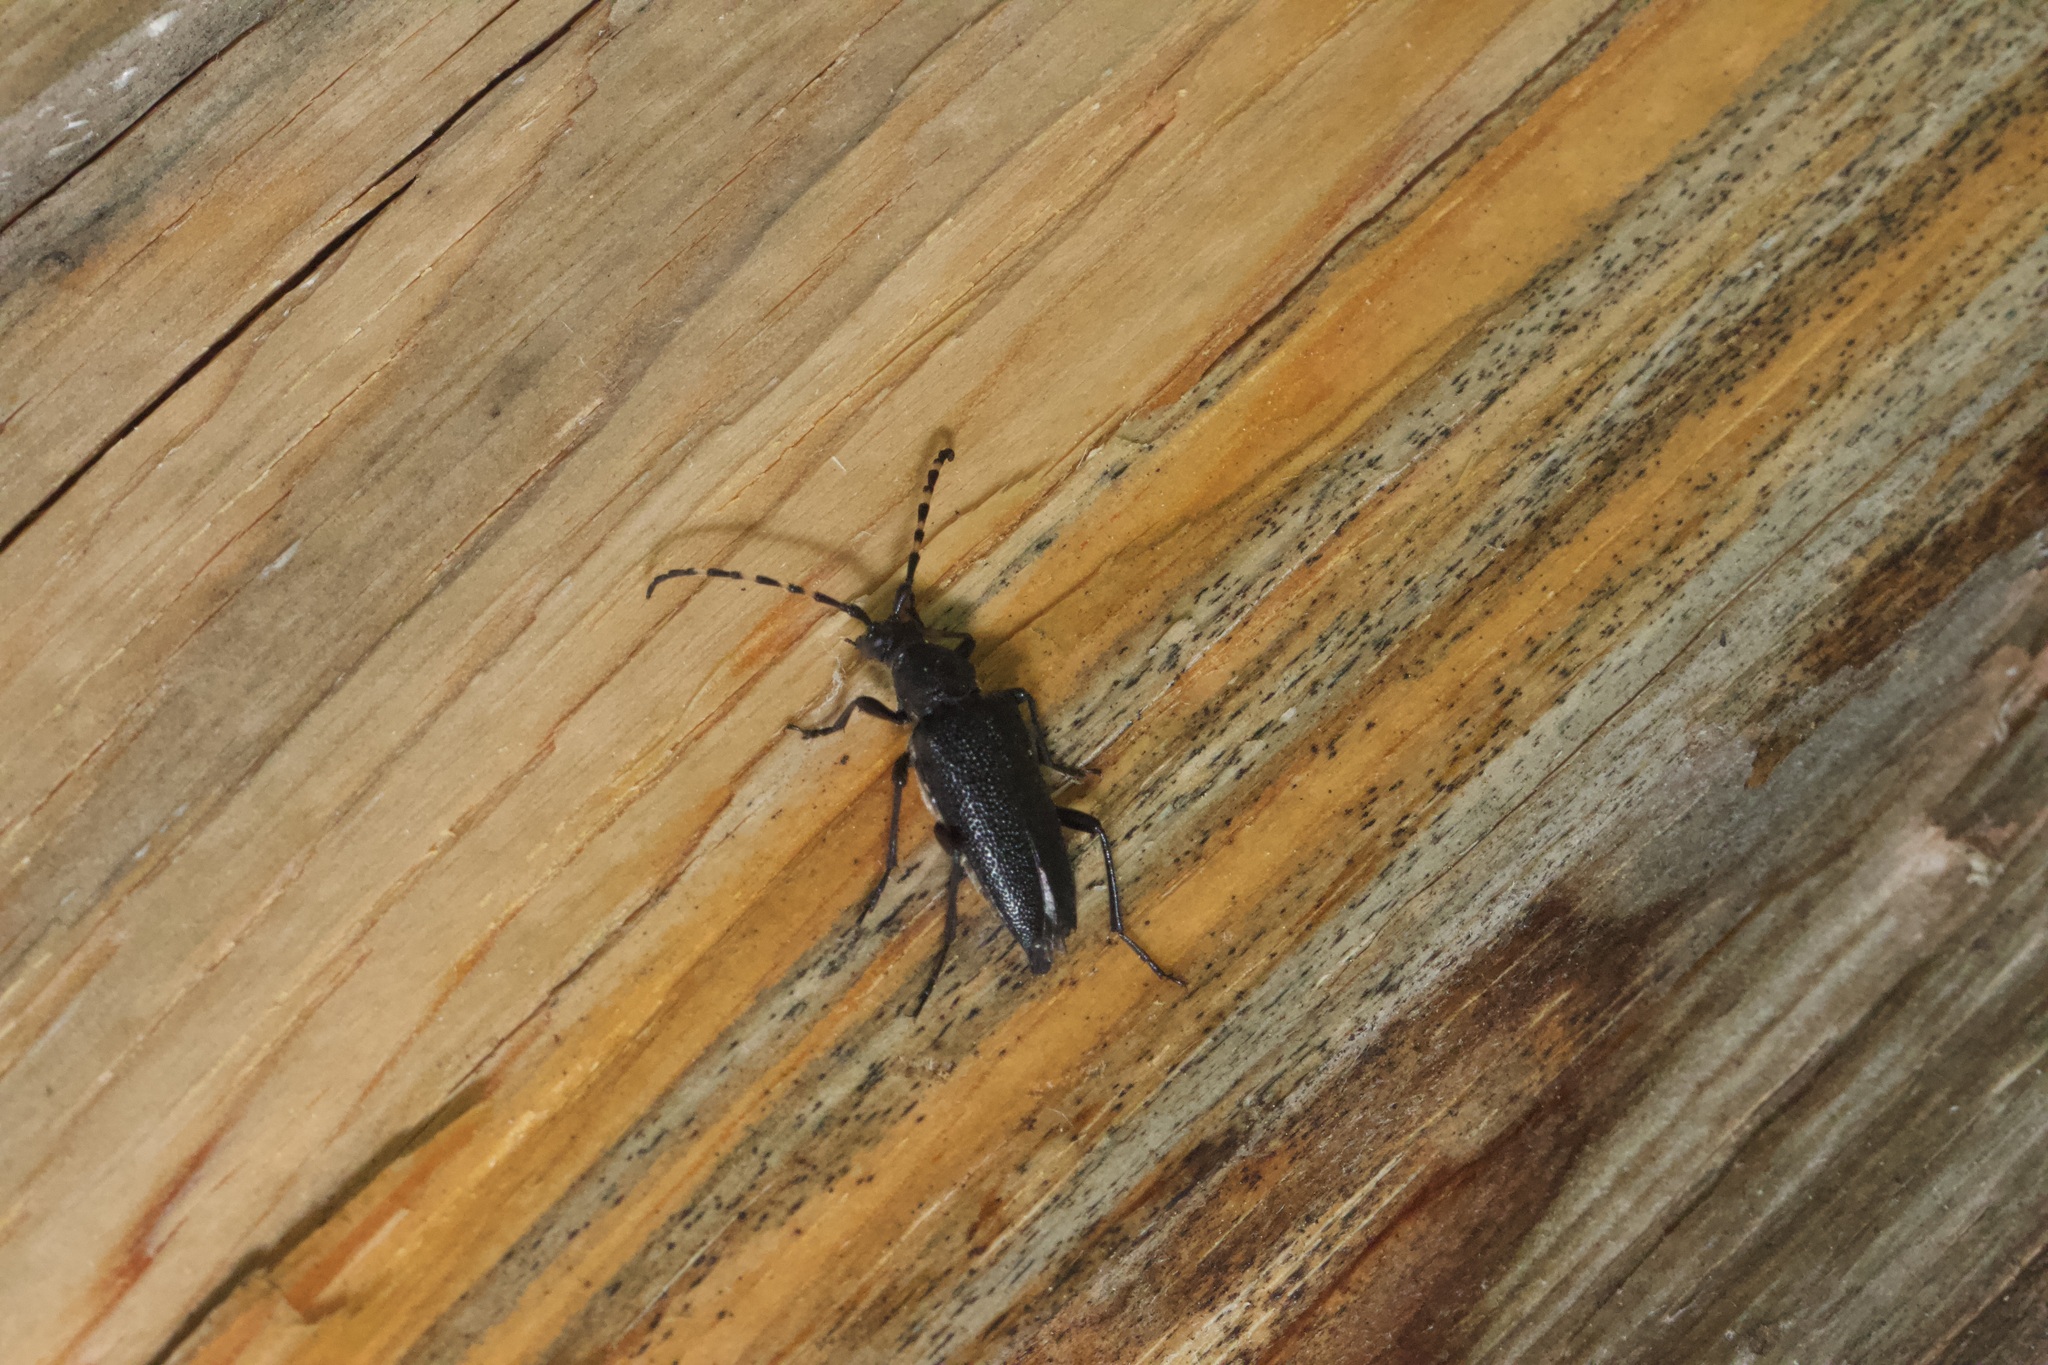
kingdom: Animalia
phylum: Arthropoda
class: Insecta
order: Coleoptera
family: Cerambycidae
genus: Stictoleptura
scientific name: Stictoleptura canadensis
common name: Red-shouldered pine borer
